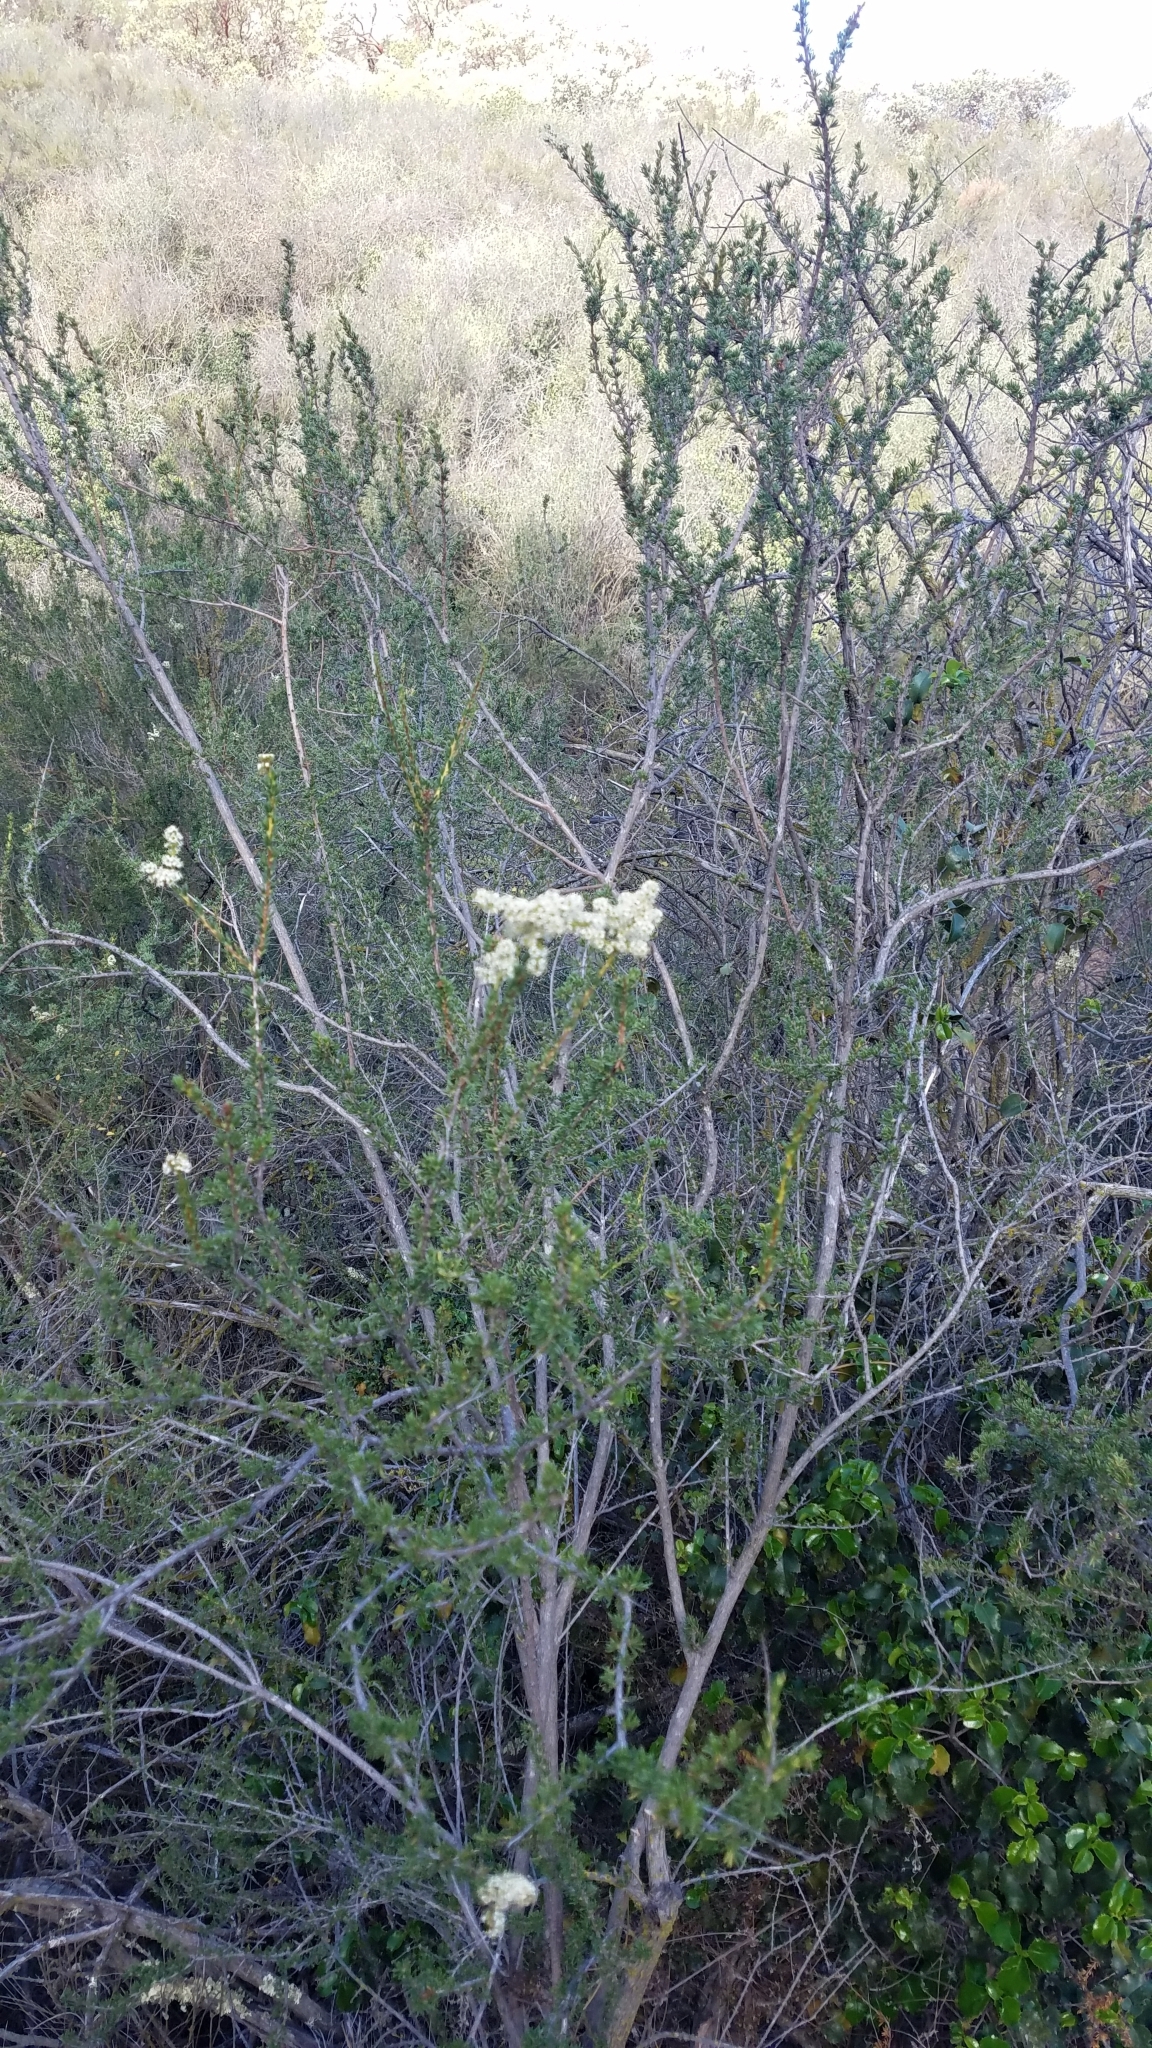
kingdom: Plantae
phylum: Tracheophyta
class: Magnoliopsida
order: Rosales
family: Rosaceae
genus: Adenostoma
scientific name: Adenostoma fasciculatum
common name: Chamise
